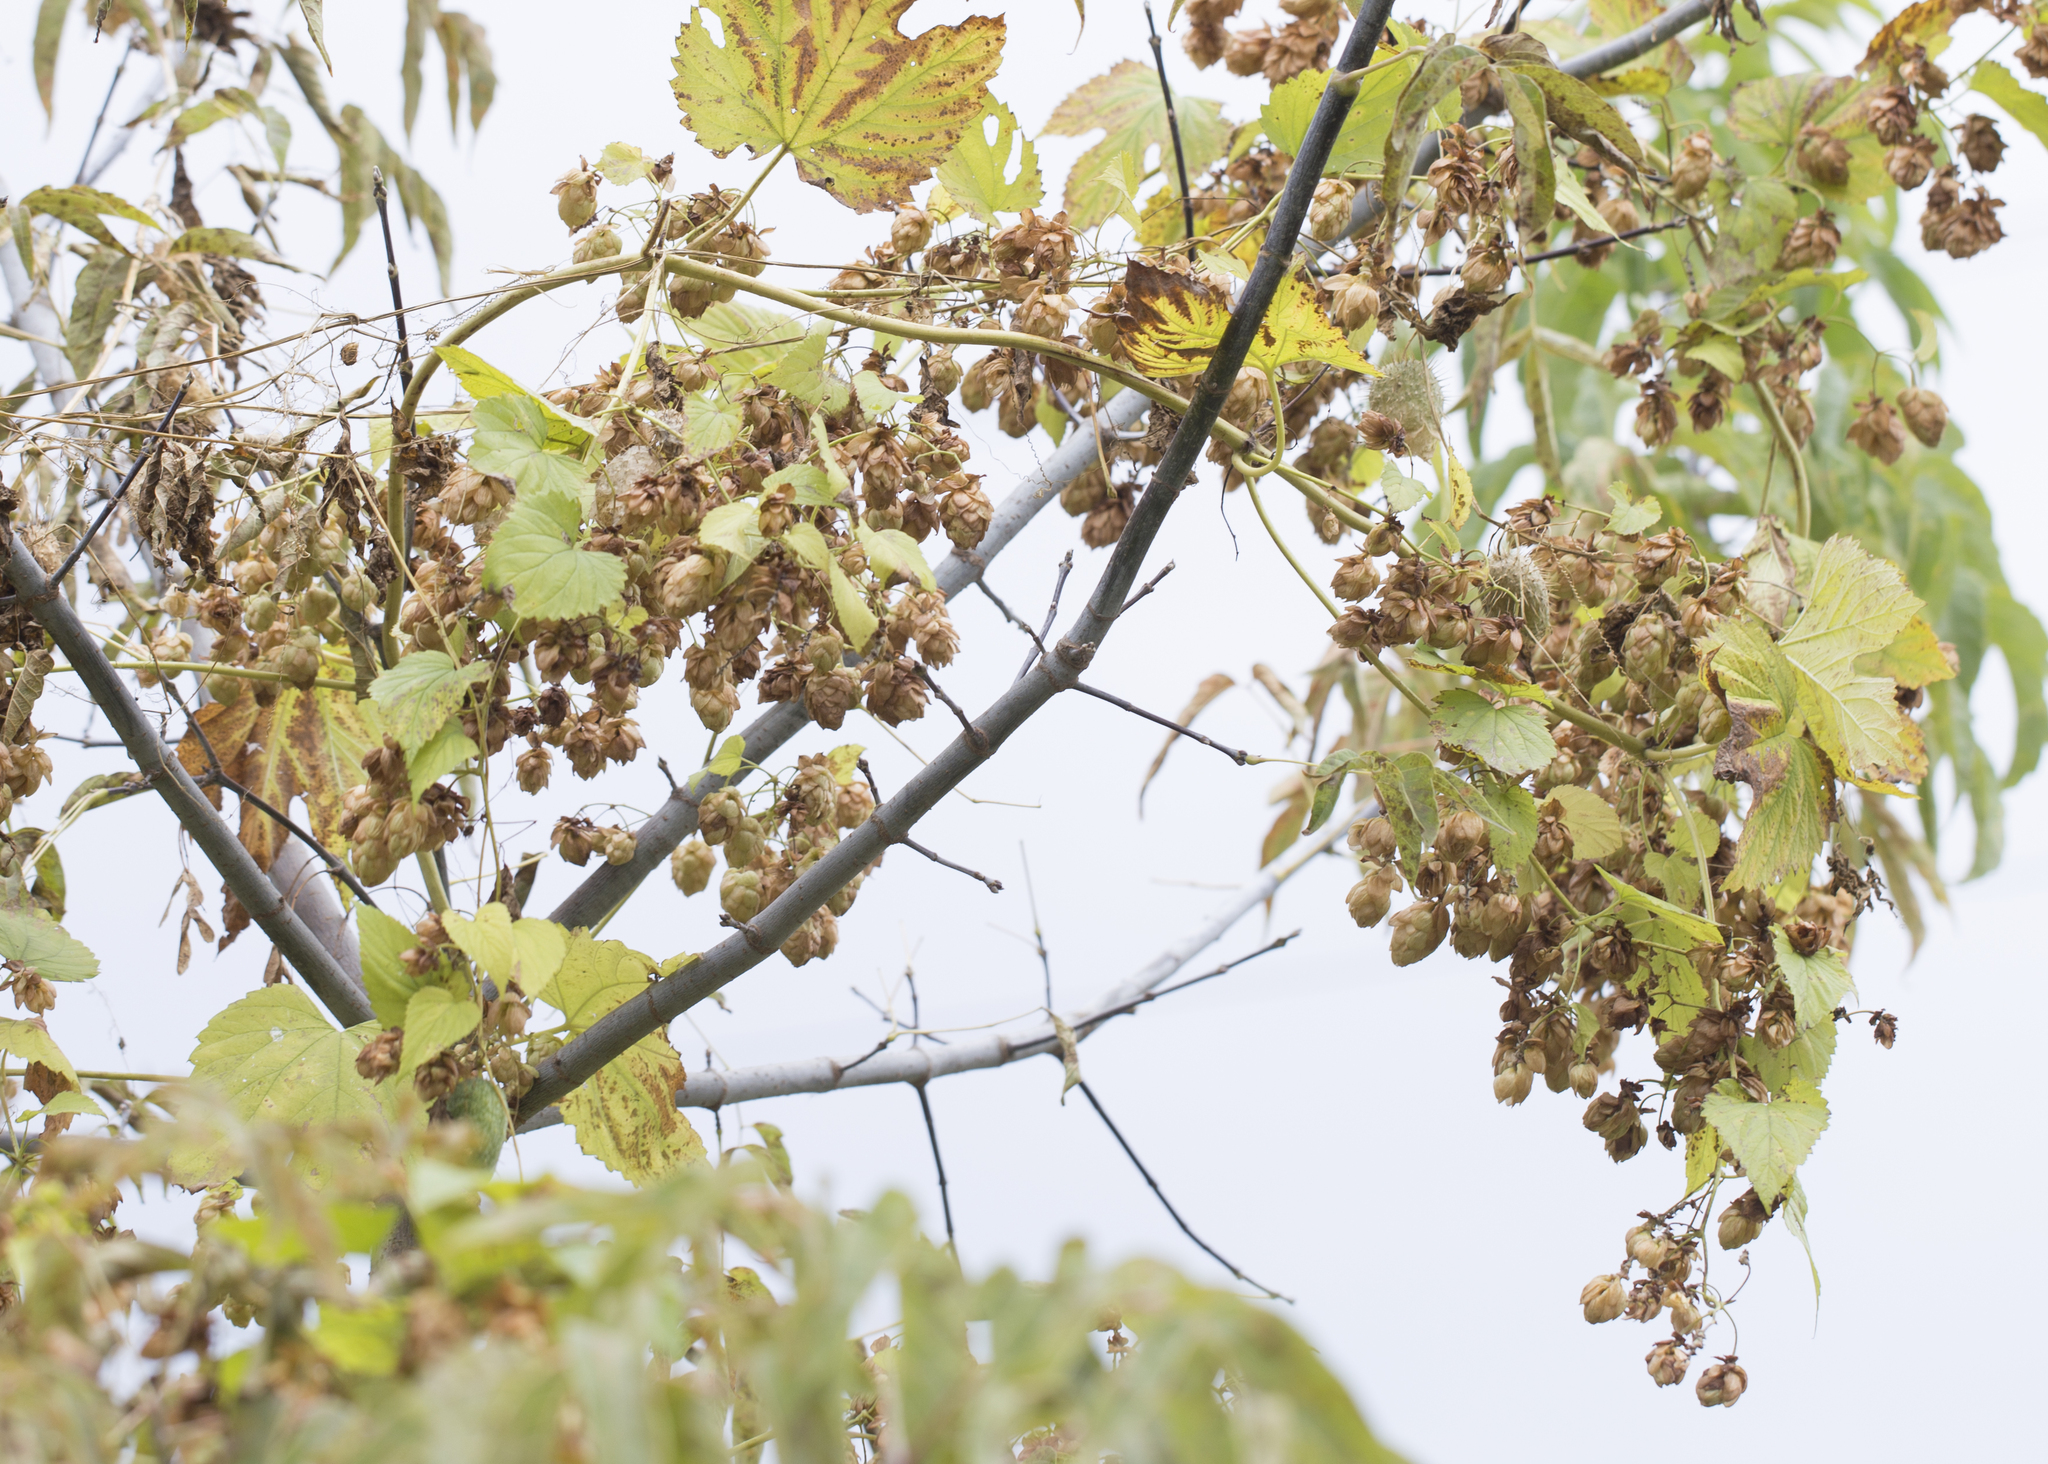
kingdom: Plantae
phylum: Tracheophyta
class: Magnoliopsida
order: Rosales
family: Cannabaceae
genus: Humulus
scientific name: Humulus lupulus
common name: Hop
